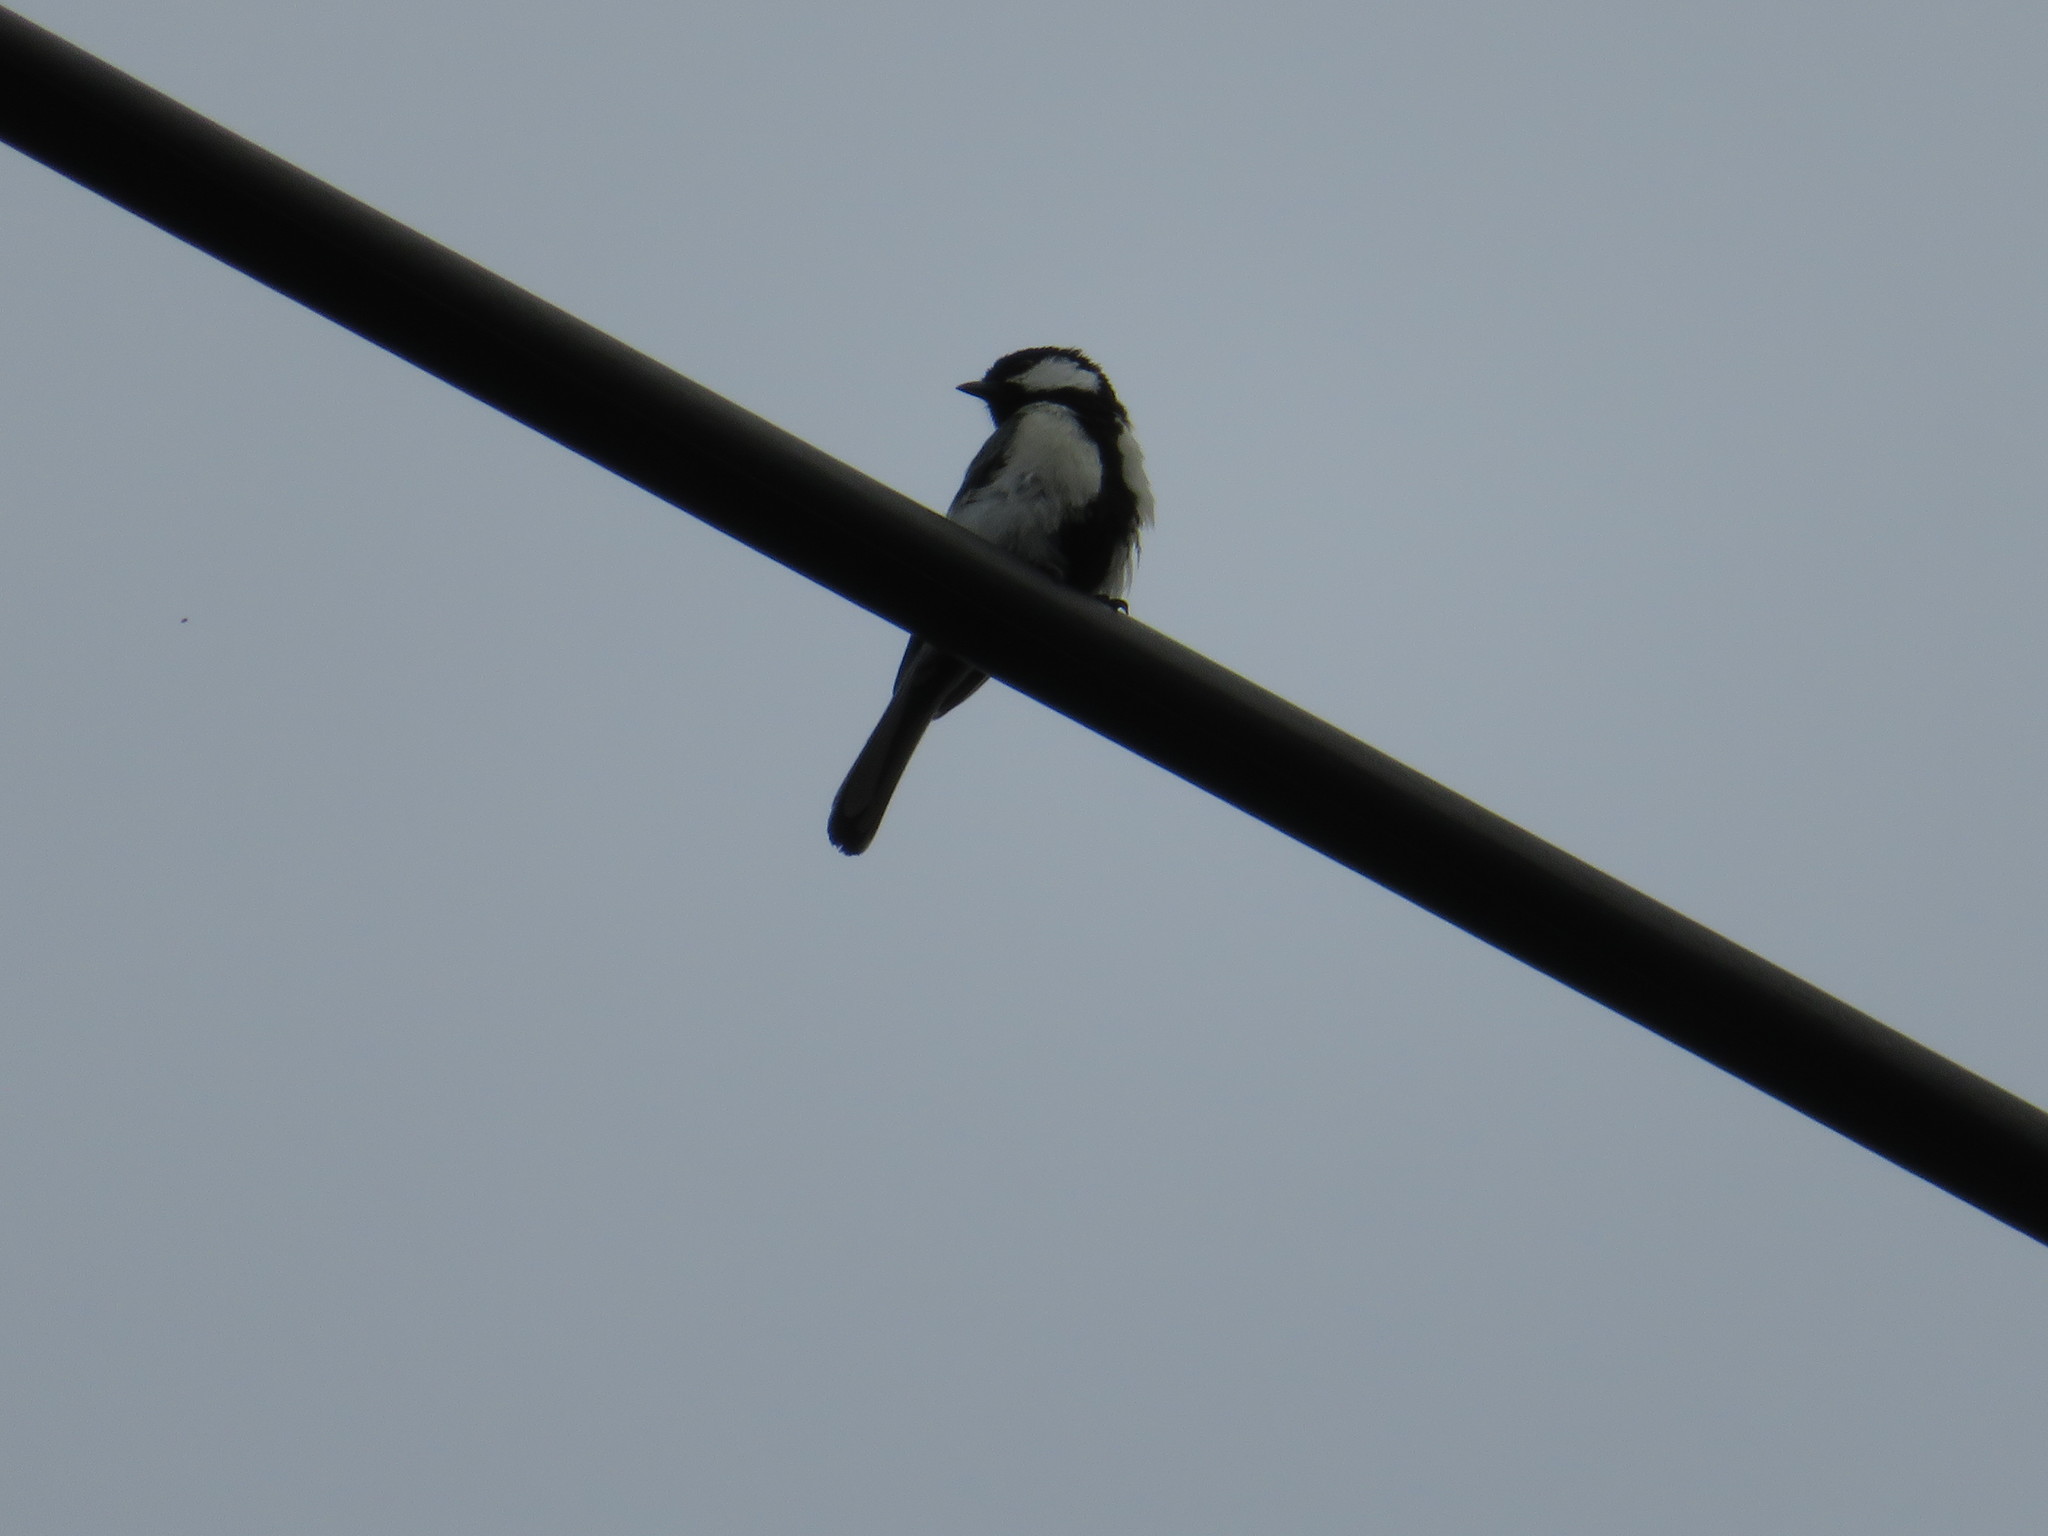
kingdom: Animalia
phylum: Chordata
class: Aves
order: Passeriformes
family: Paridae
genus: Parus
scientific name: Parus minor
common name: Japanese tit
